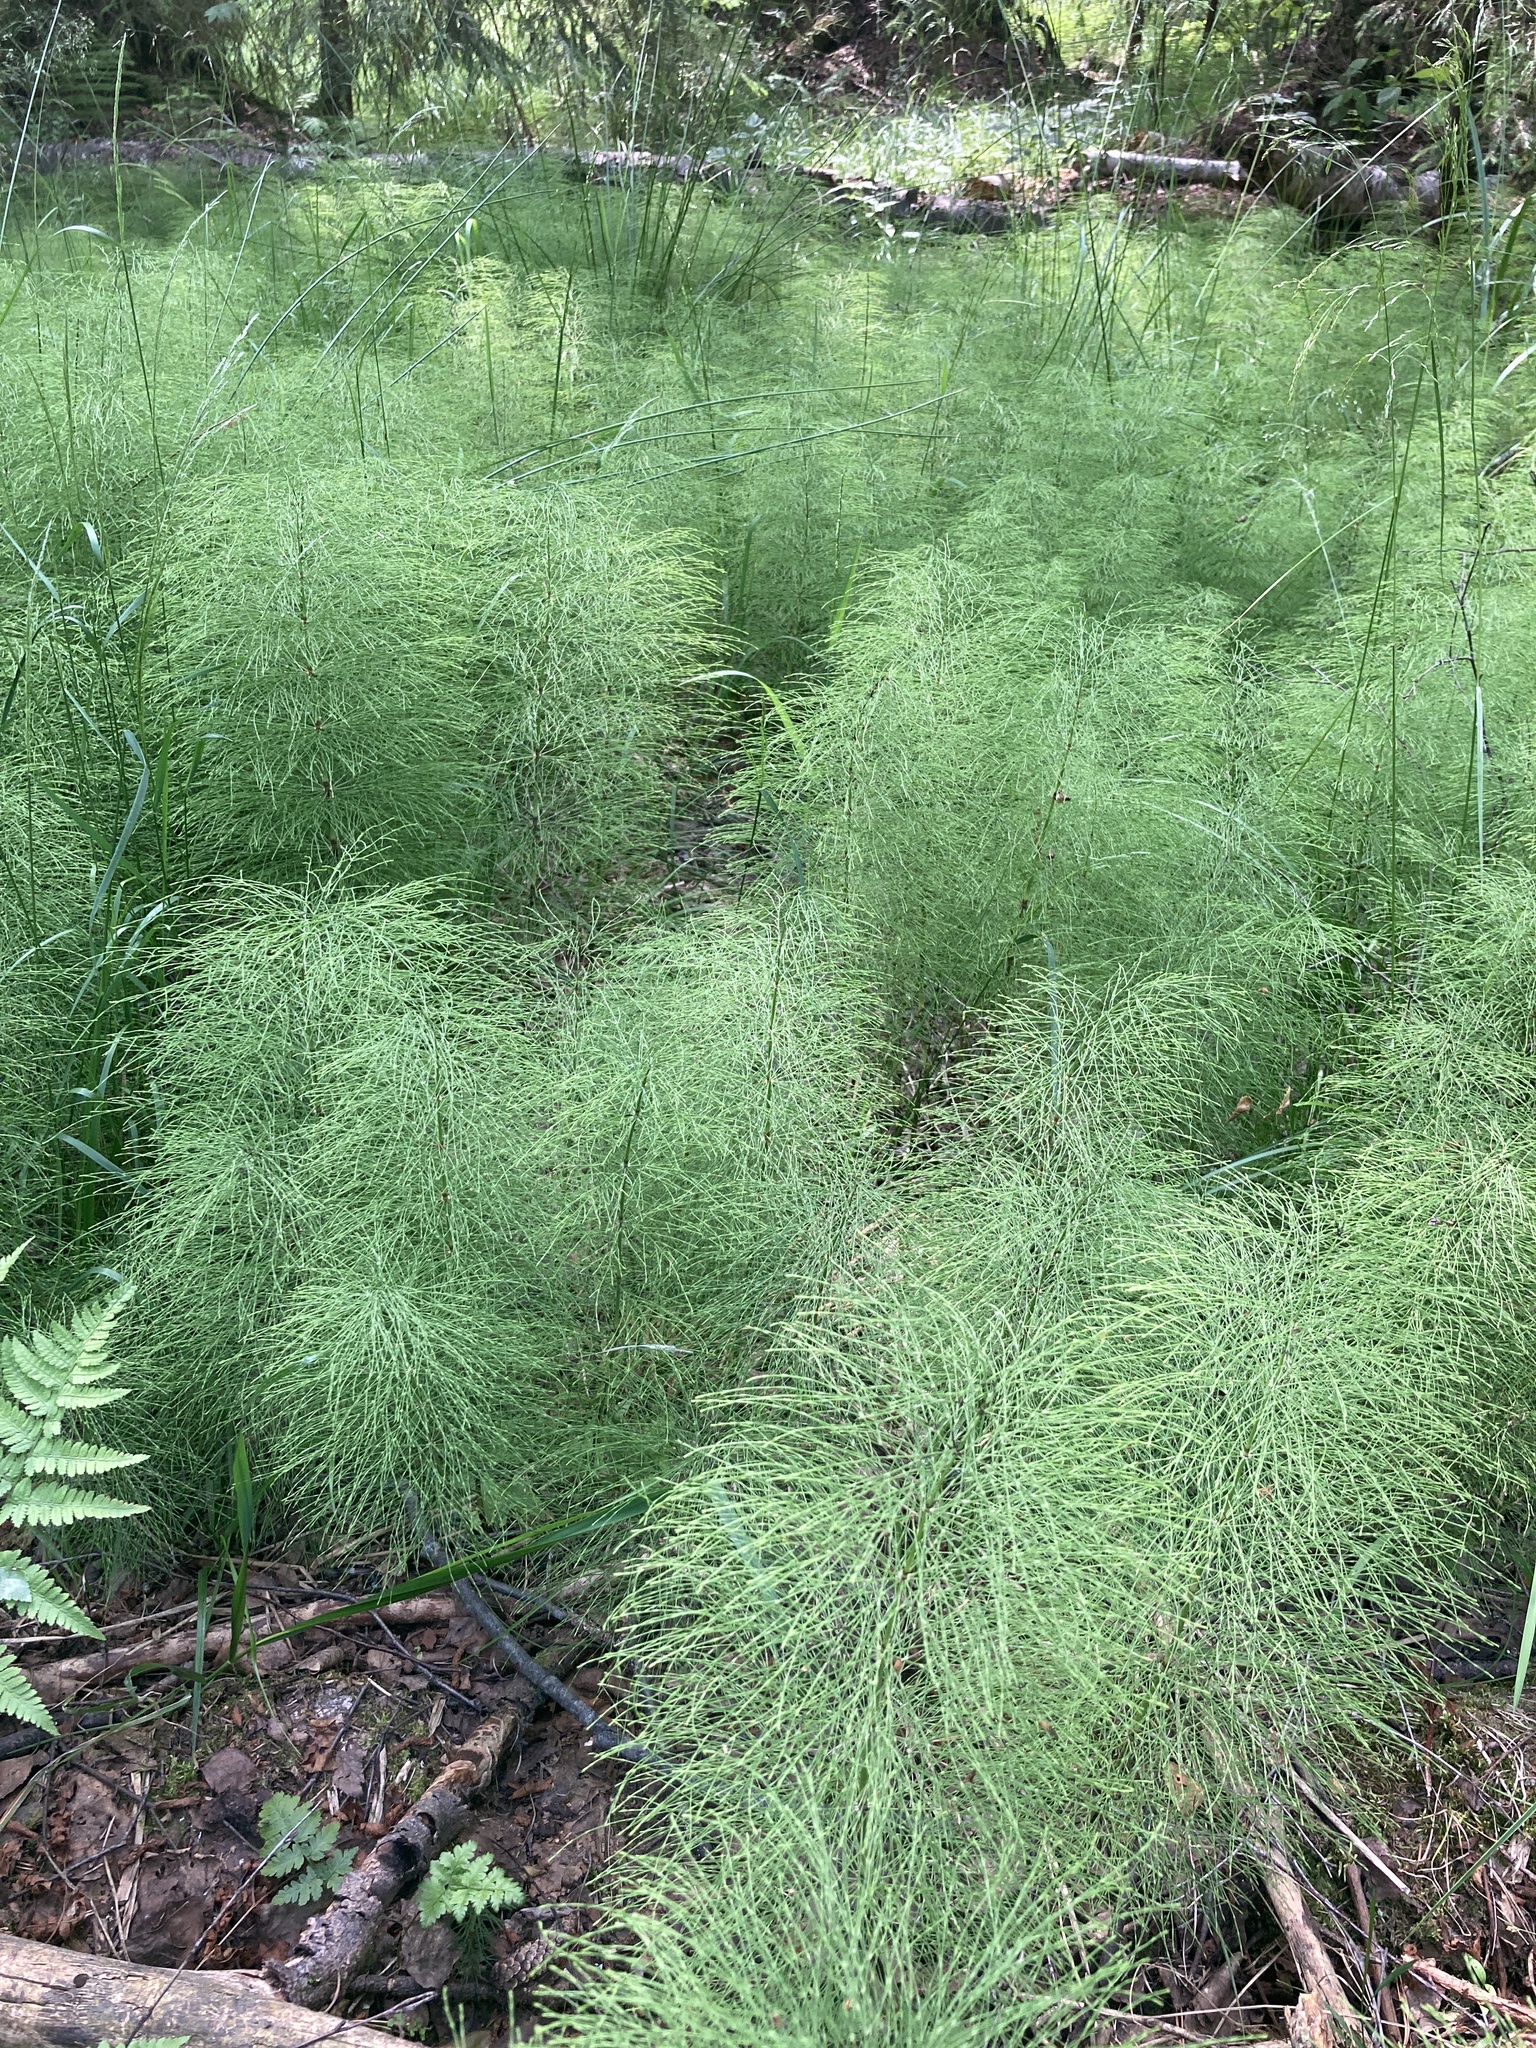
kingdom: Plantae
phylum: Tracheophyta
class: Polypodiopsida
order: Equisetales
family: Equisetaceae
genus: Equisetum
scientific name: Equisetum sylvaticum
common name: Wood horsetail
